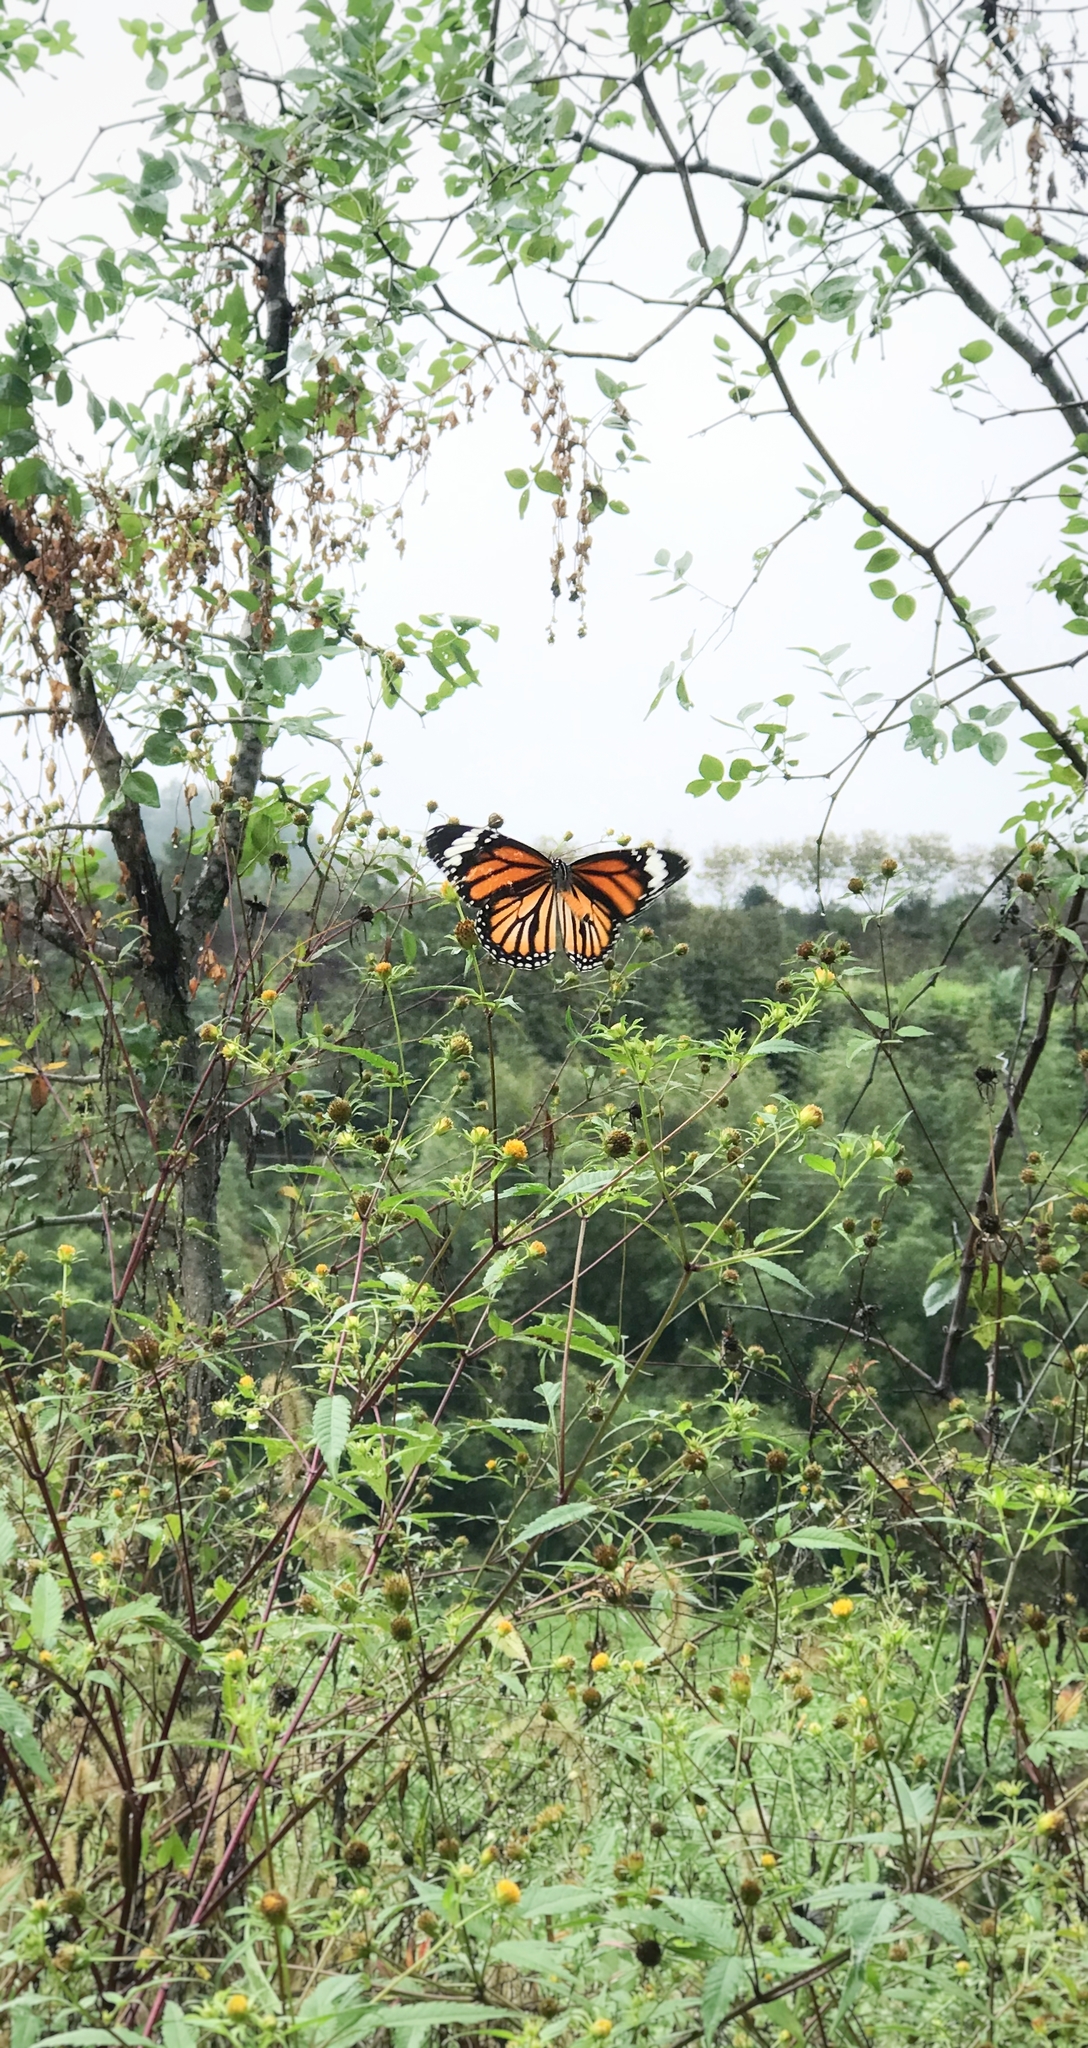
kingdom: Animalia
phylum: Arthropoda
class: Insecta
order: Lepidoptera
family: Nymphalidae
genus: Danaus
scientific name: Danaus genutia
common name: Common tiger butterfly
